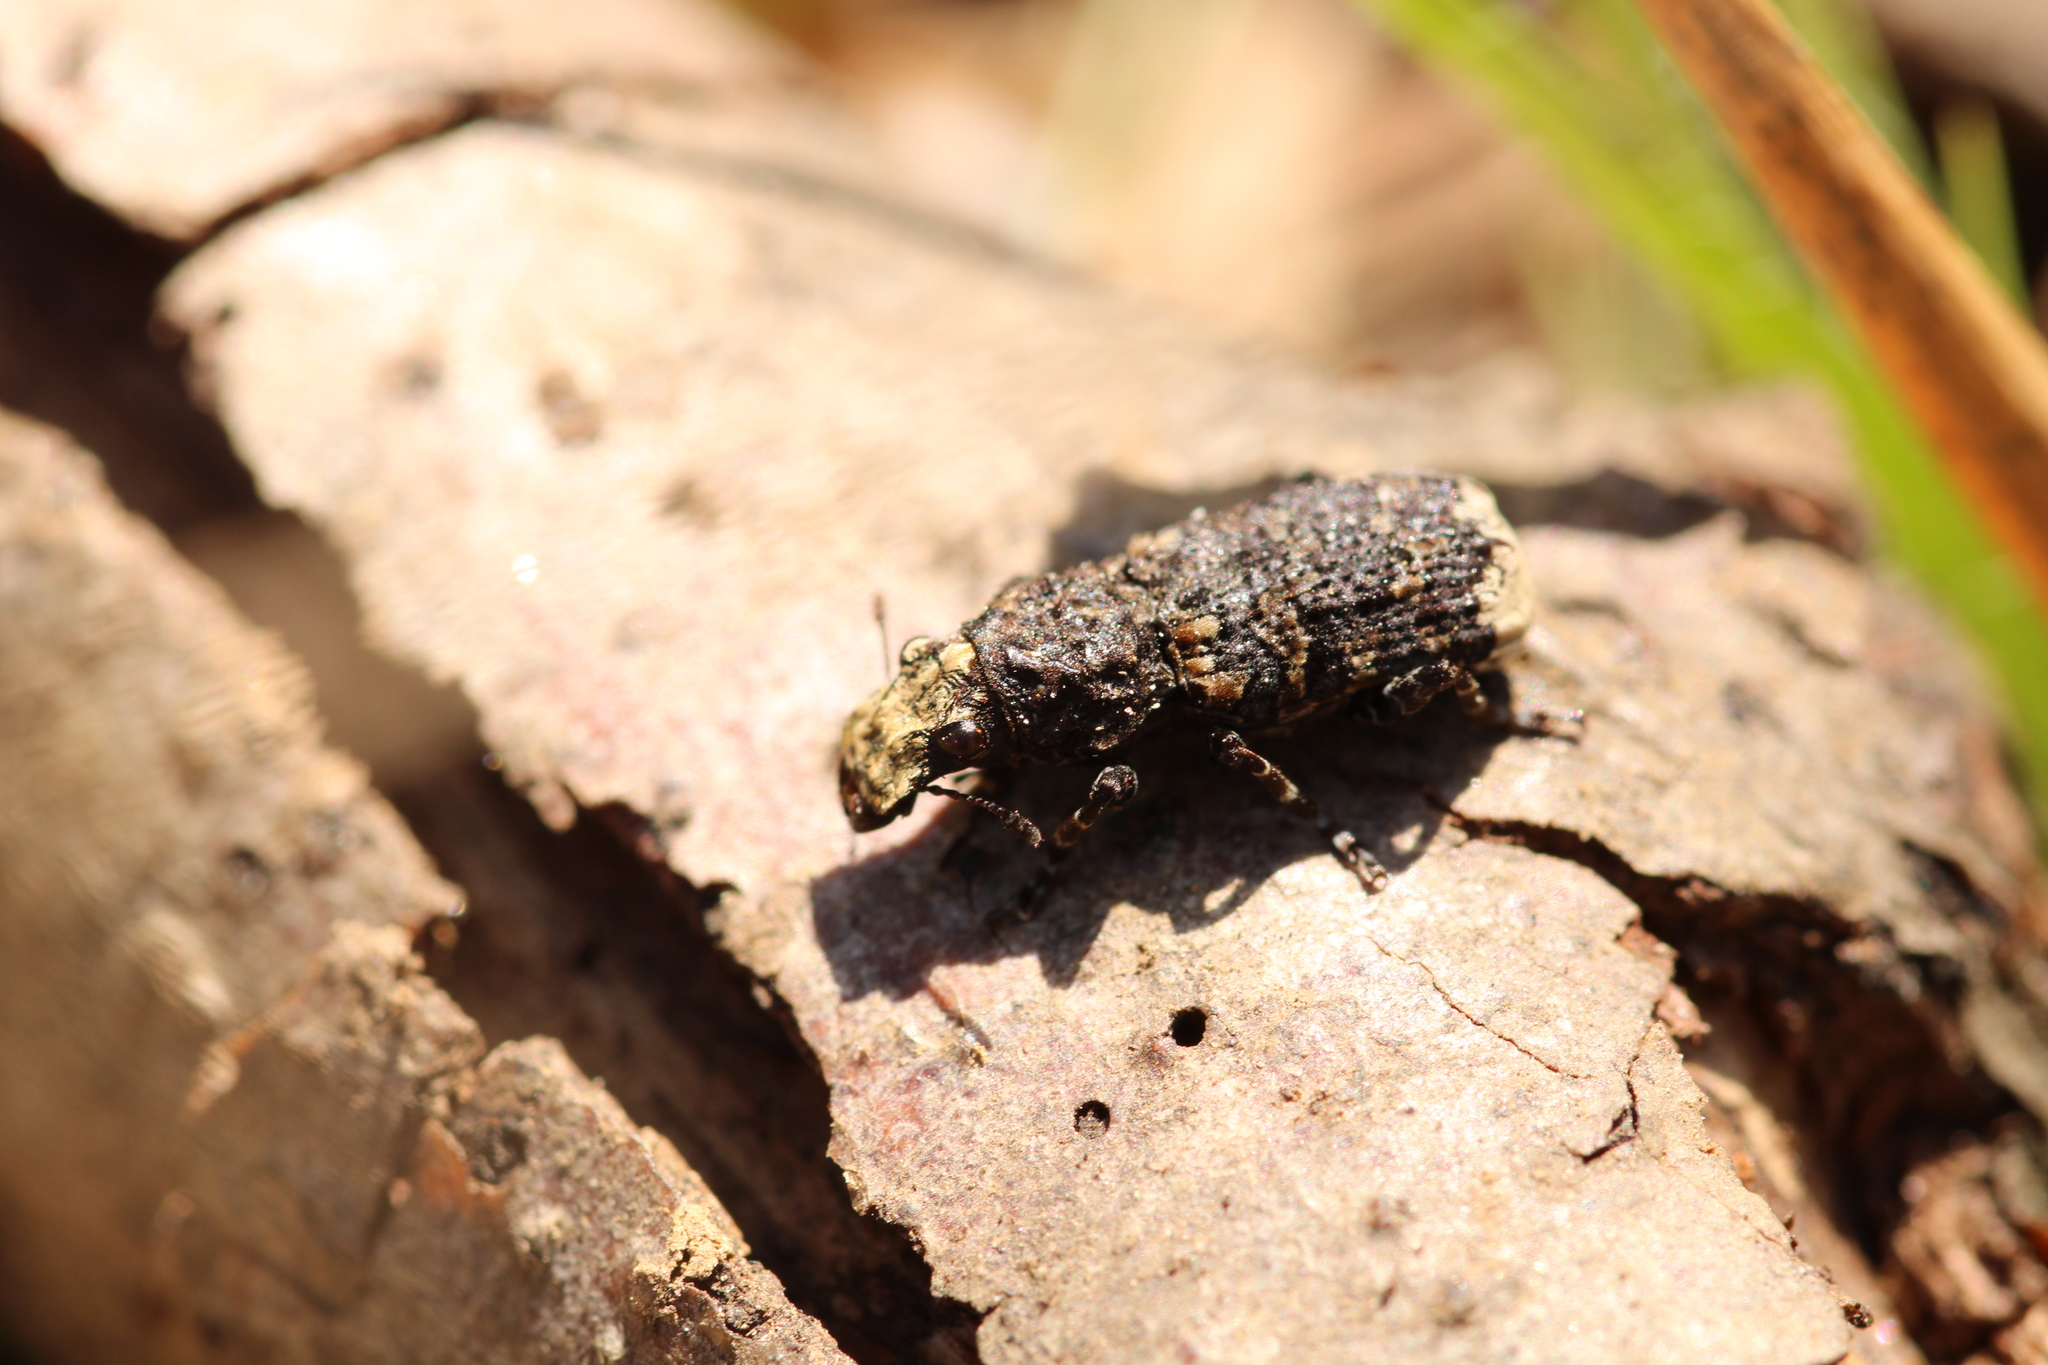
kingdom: Animalia
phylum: Arthropoda
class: Insecta
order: Coleoptera
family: Anthribidae
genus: Platyrhinus
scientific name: Platyrhinus resinosus
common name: Cramp-ball fungus weevil
